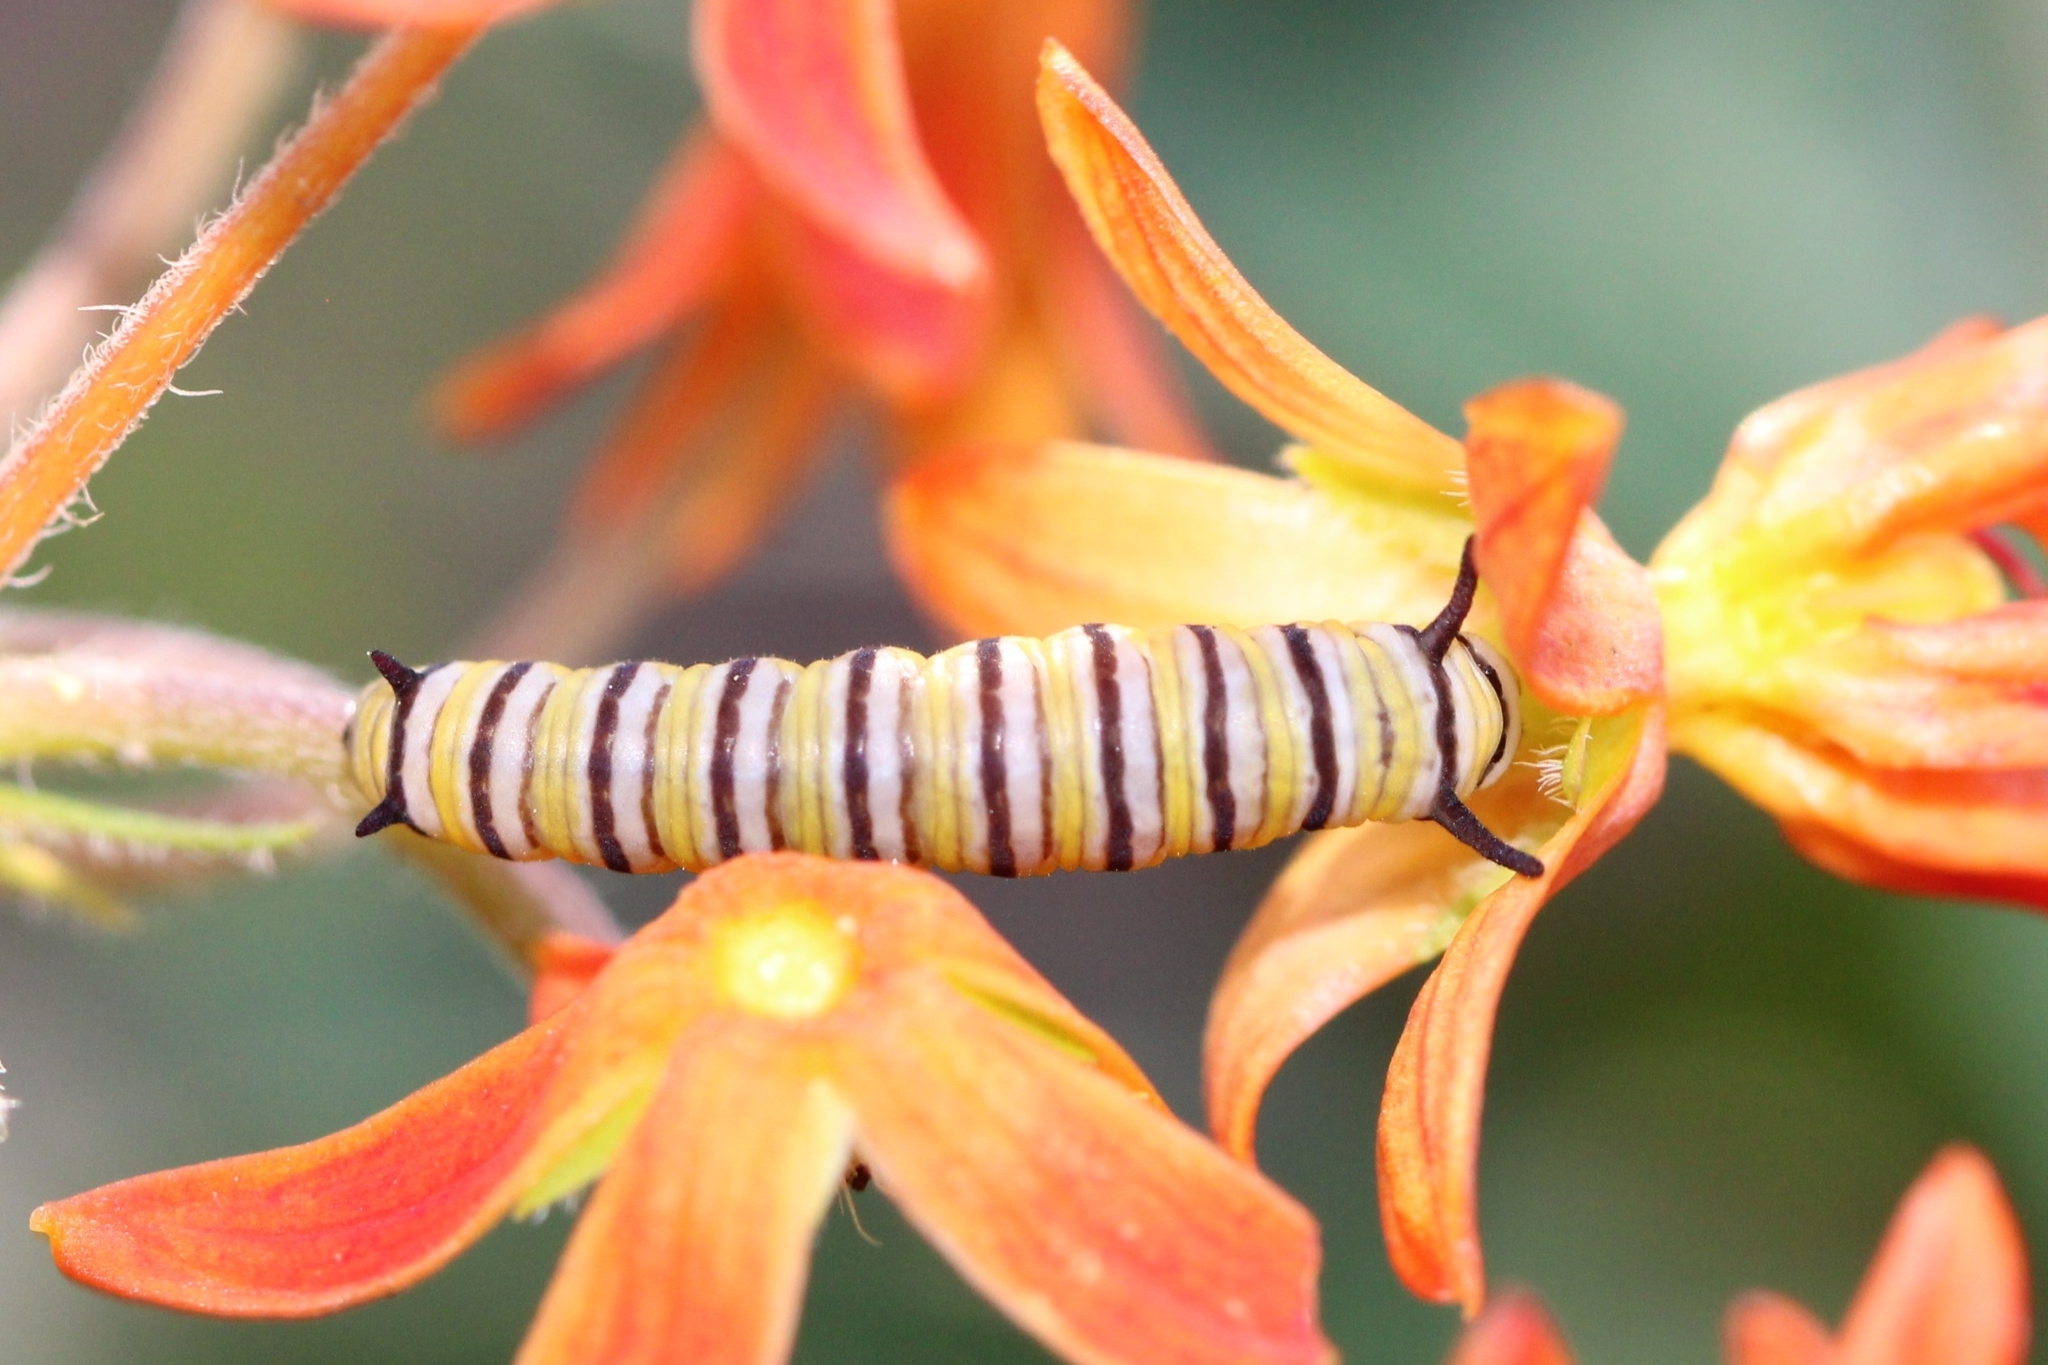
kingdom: Animalia
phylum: Arthropoda
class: Insecta
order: Lepidoptera
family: Nymphalidae
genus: Danaus
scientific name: Danaus plexippus
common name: Monarch
